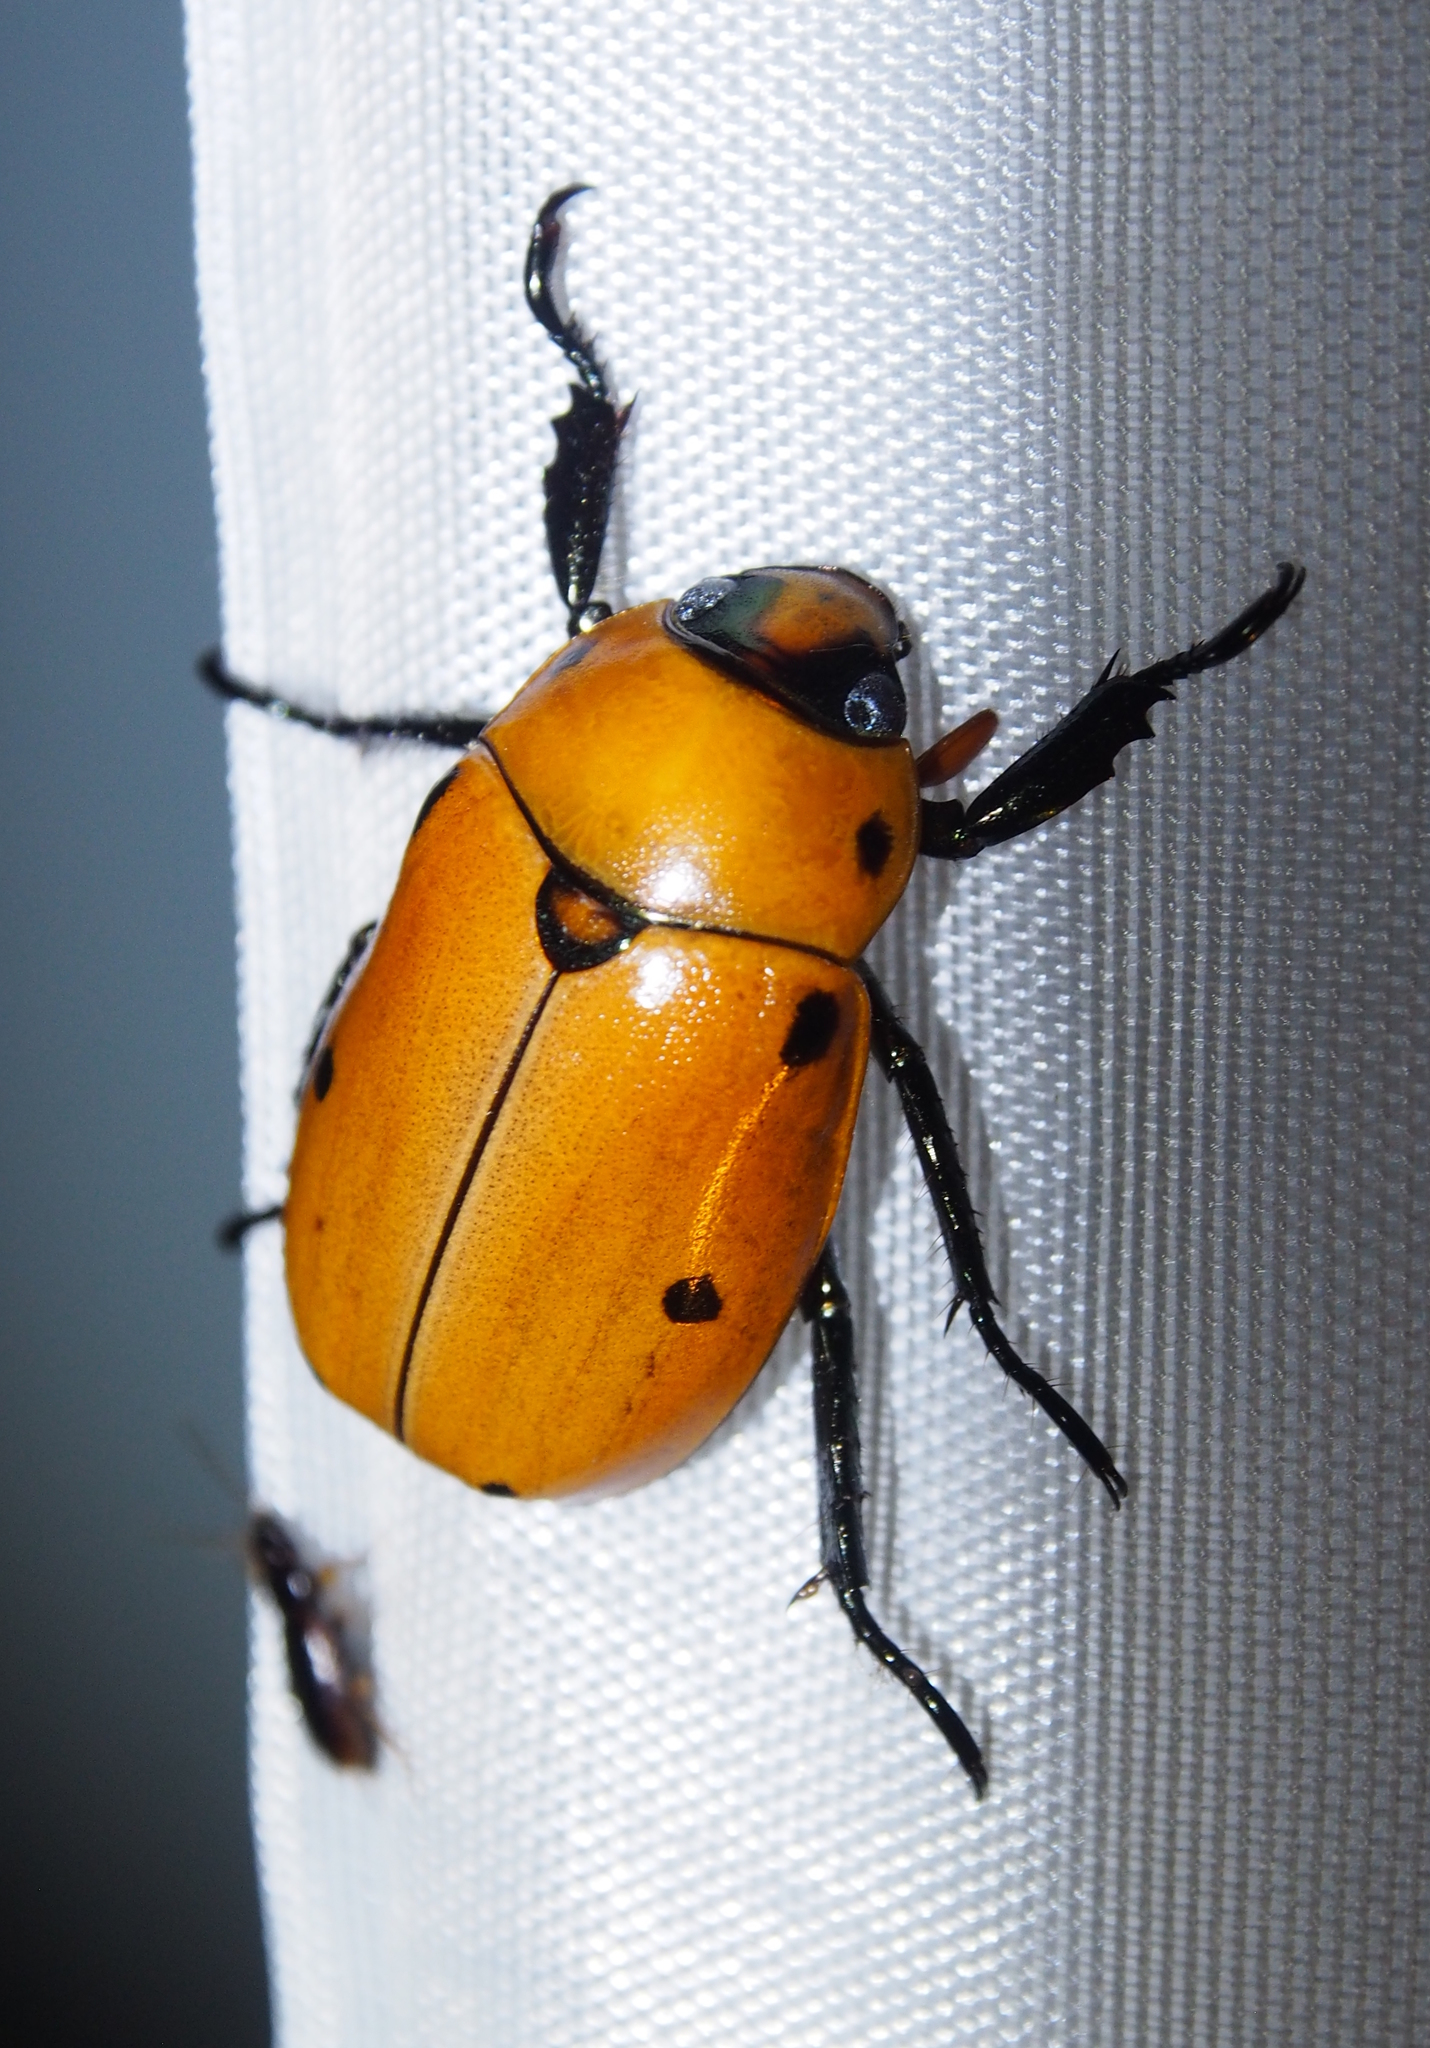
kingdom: Animalia
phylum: Arthropoda
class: Insecta
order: Coleoptera
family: Scarabaeidae
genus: Pelidnota
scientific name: Pelidnota punctata
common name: Grapevine beetle
